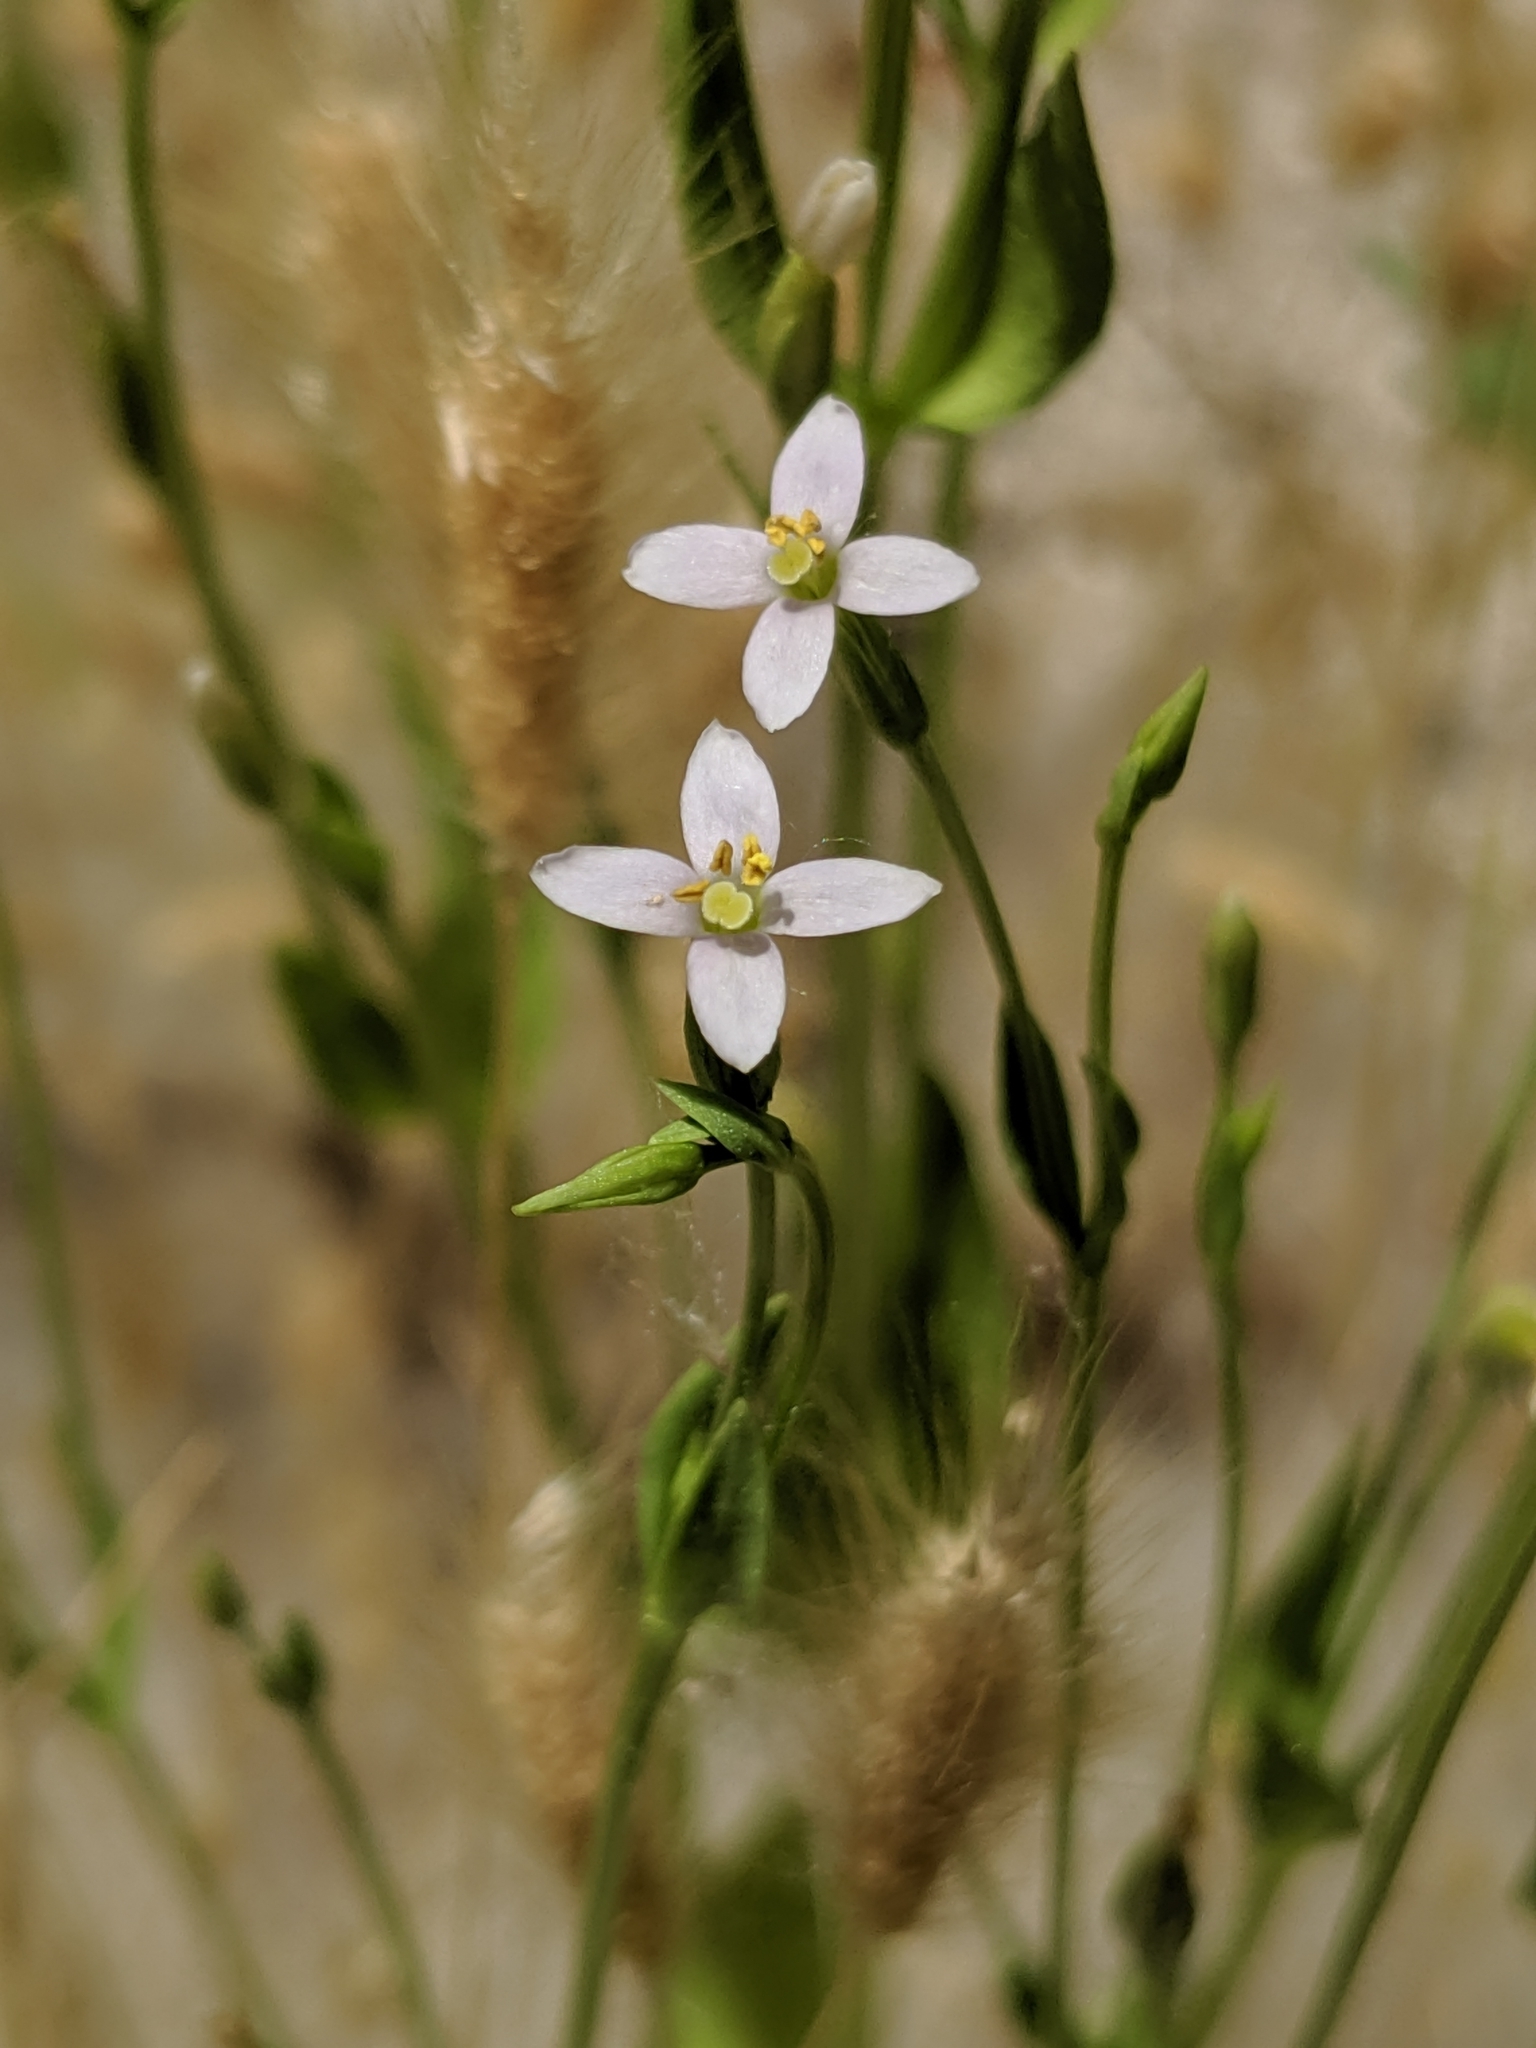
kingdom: Plantae
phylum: Tracheophyta
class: Magnoliopsida
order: Gentianales
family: Gentianaceae
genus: Zeltnera
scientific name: Zeltnera exaltata
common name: Great basin centaury
